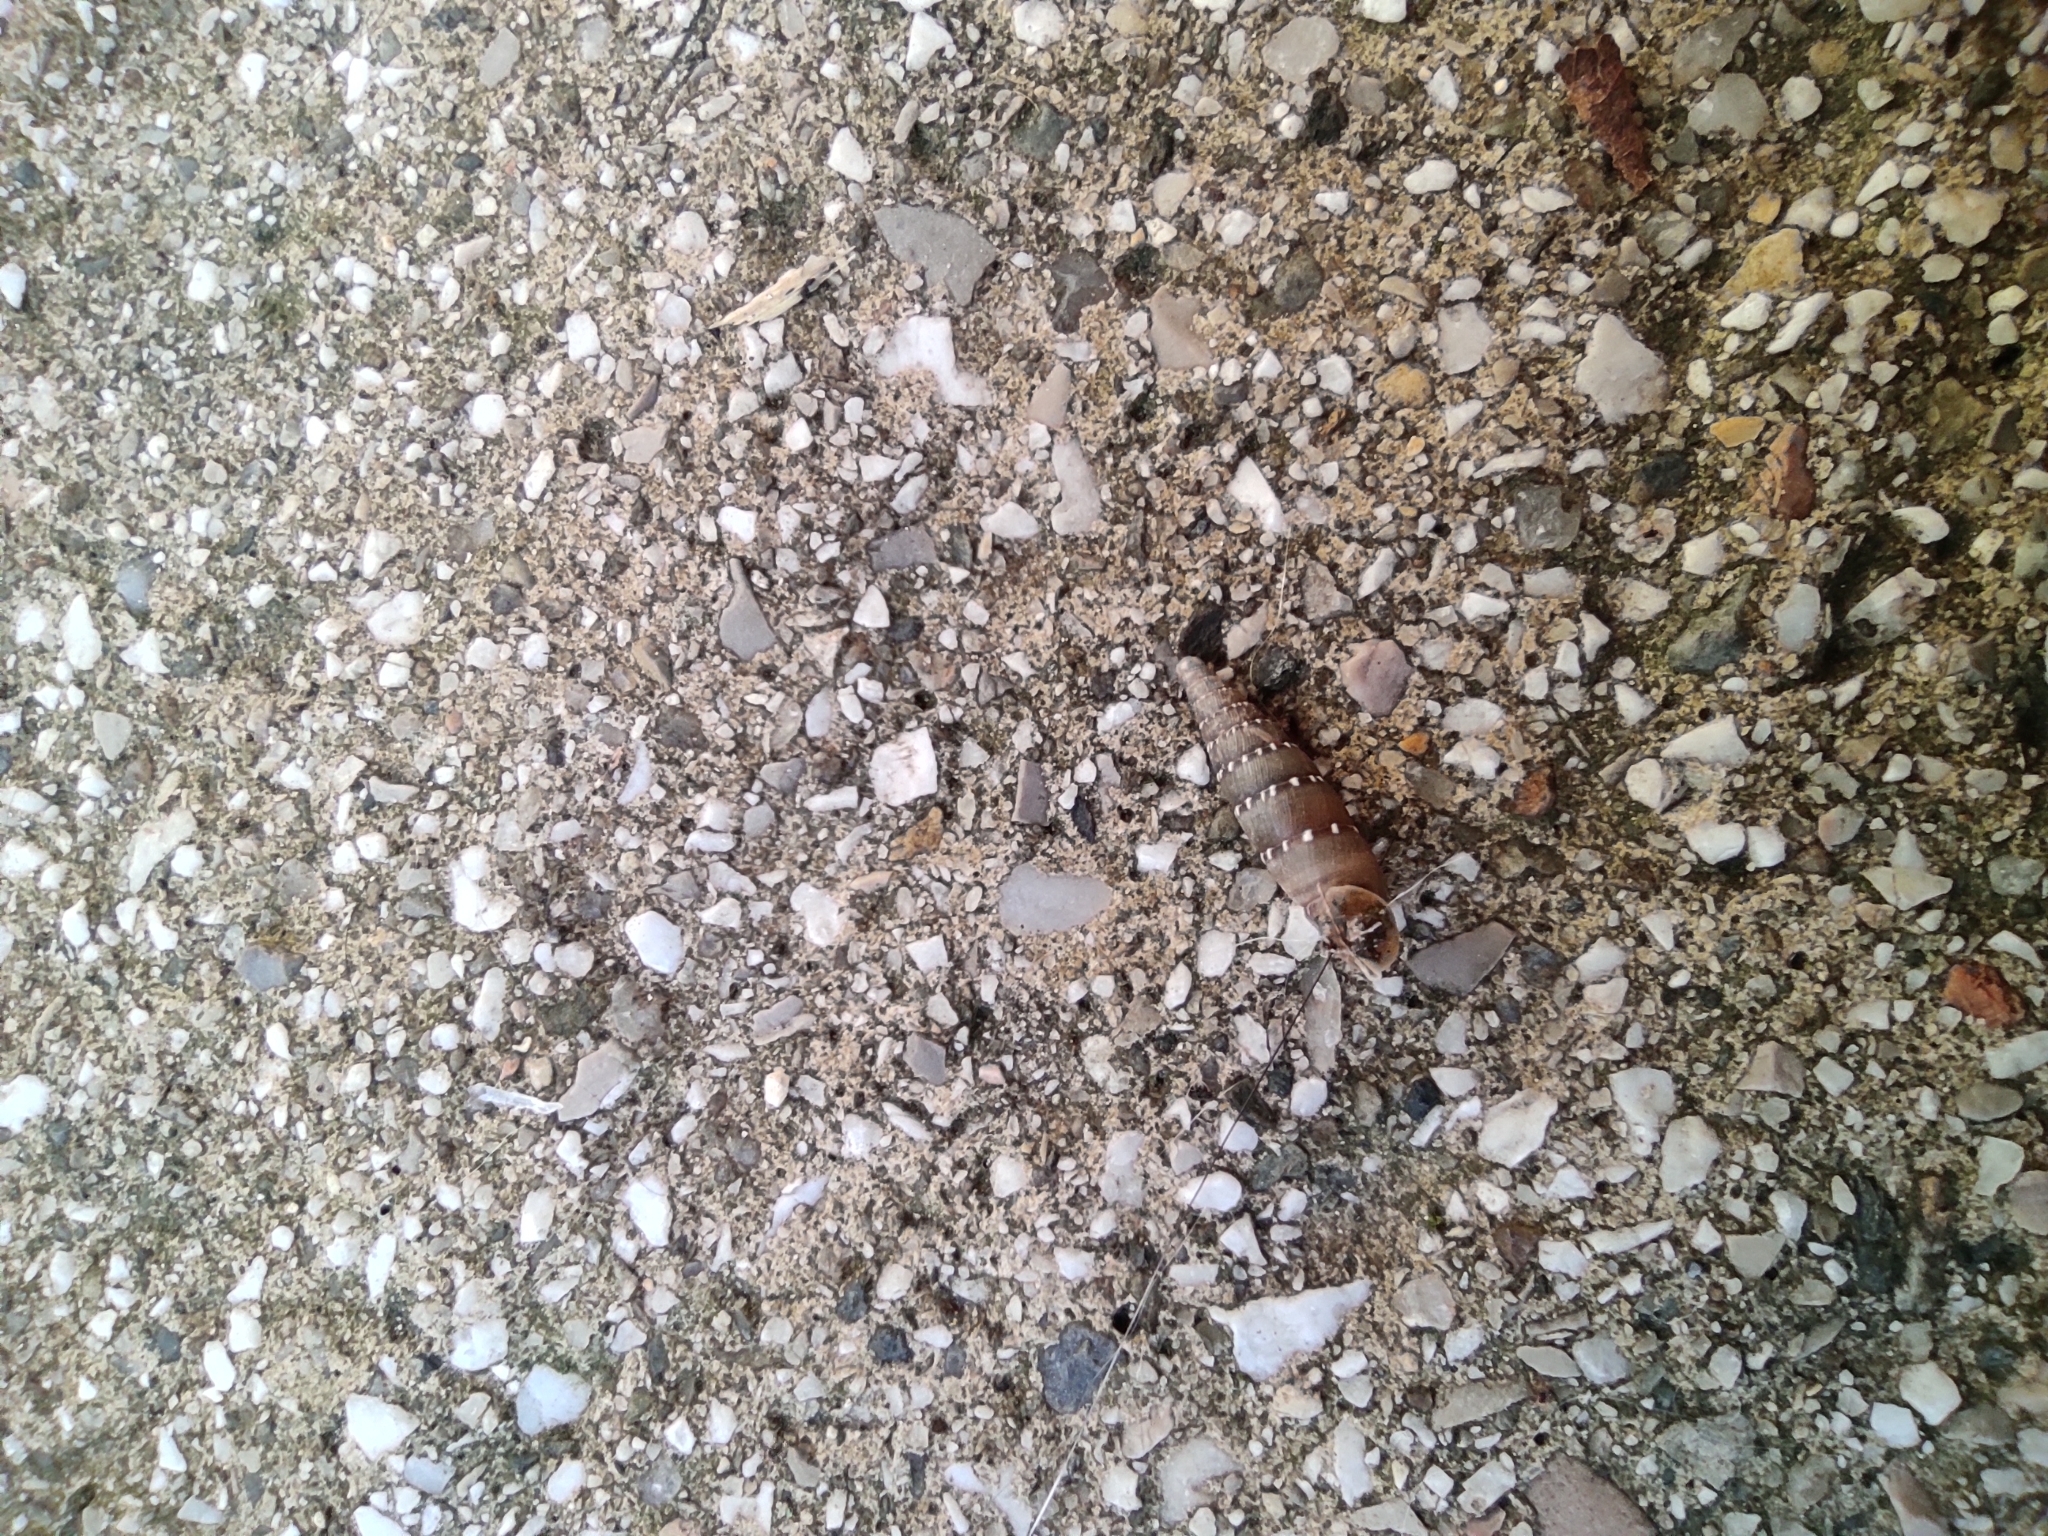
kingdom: Animalia
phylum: Mollusca
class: Gastropoda
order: Stylommatophora
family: Clausiliidae
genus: Papillifera
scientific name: Papillifera papillaris
